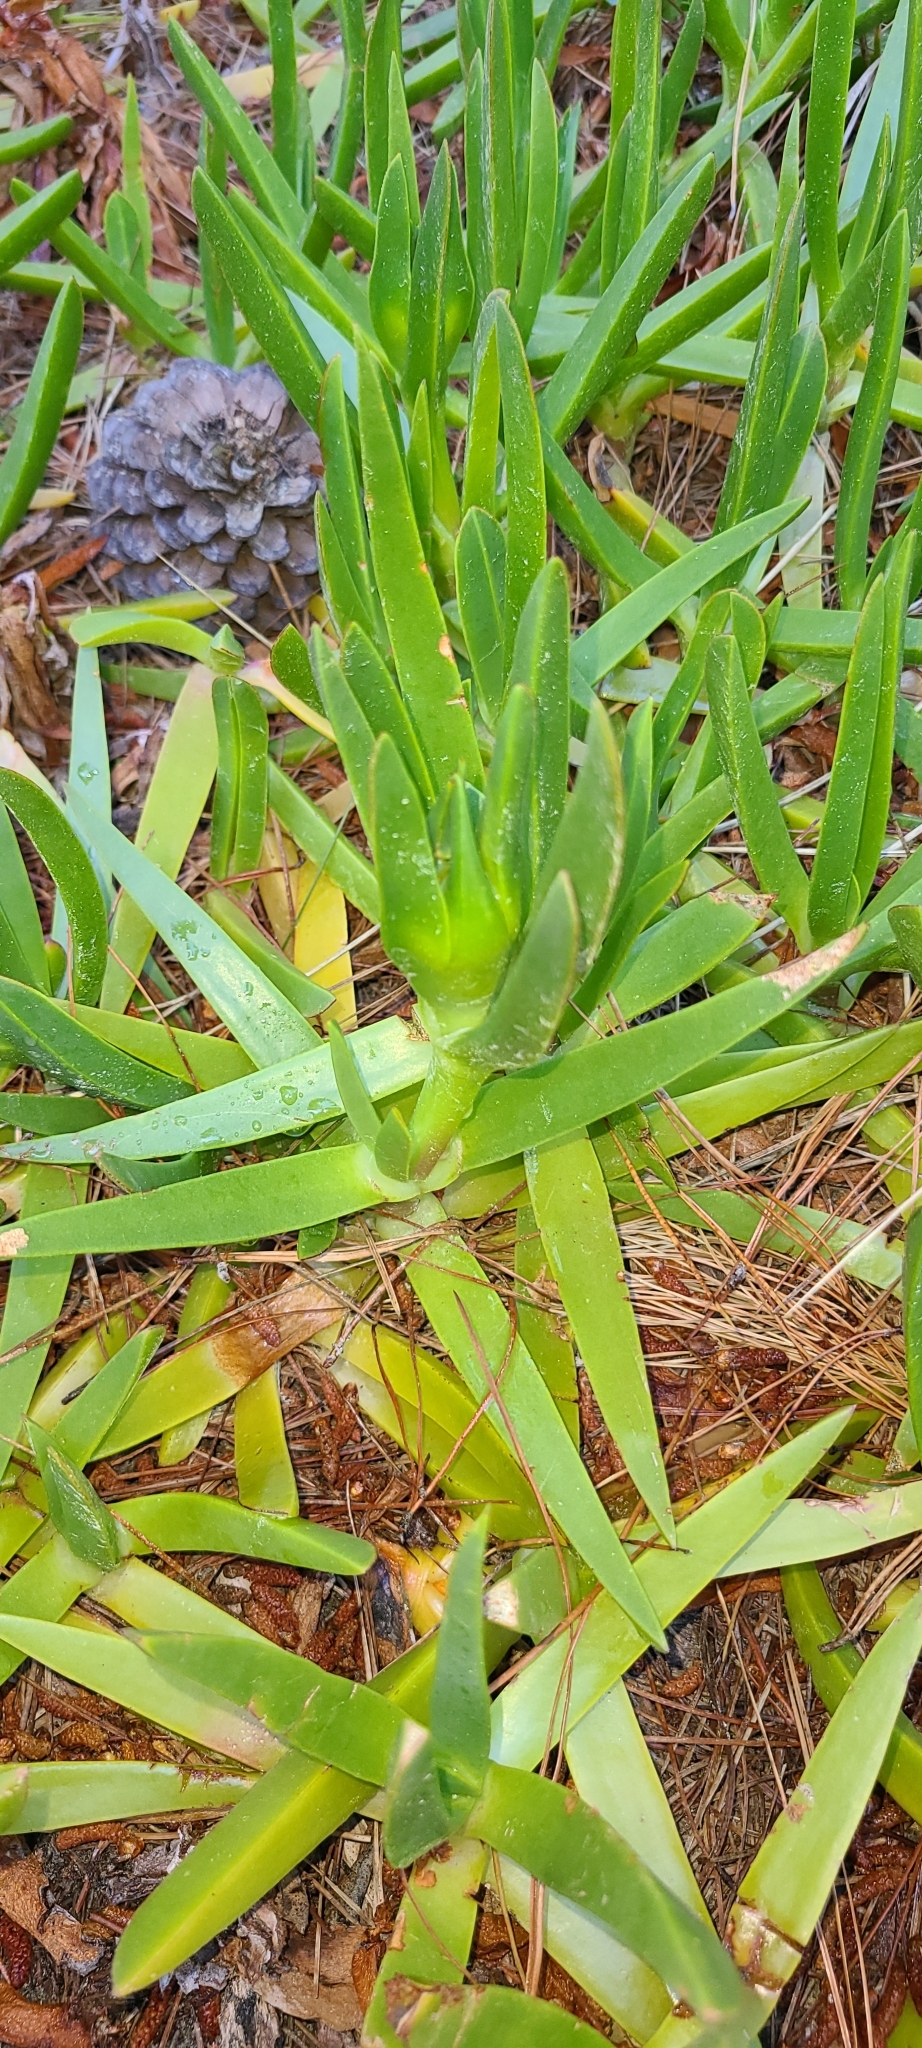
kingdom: Plantae
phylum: Tracheophyta
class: Magnoliopsida
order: Caryophyllales
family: Aizoaceae
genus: Carpobrotus
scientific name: Carpobrotus edulis
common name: Hottentot-fig
